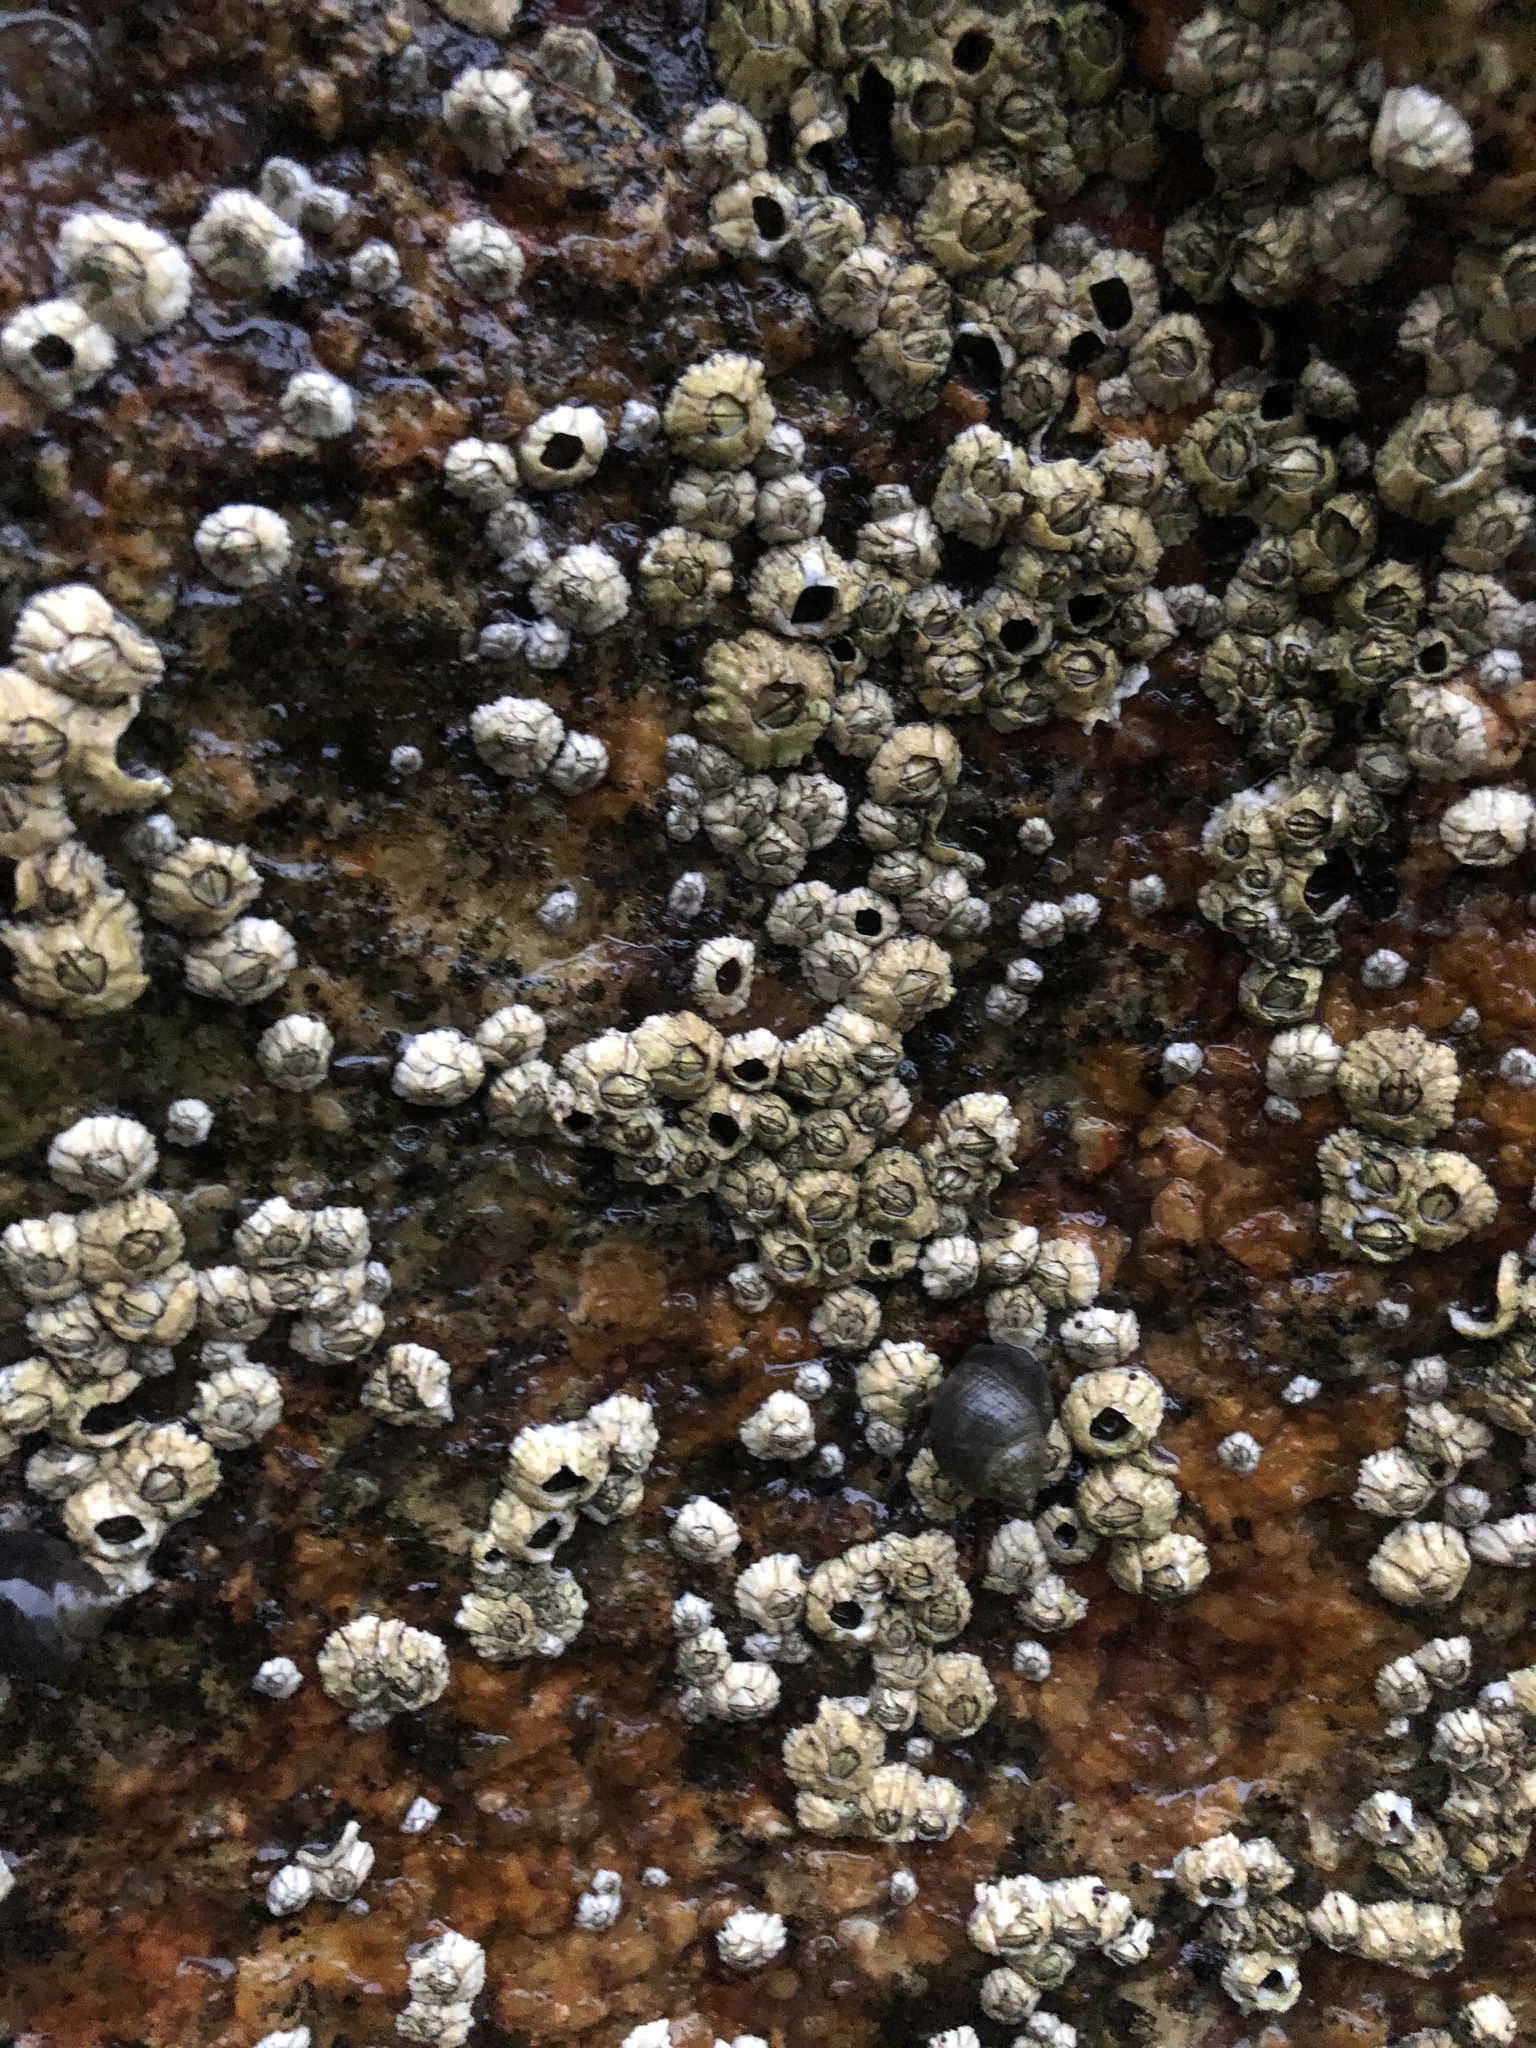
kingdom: Animalia
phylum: Arthropoda
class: Maxillopoda
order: Sessilia
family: Archaeobalanidae
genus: Semibalanus
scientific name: Semibalanus balanoides
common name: Acorn barnacle
